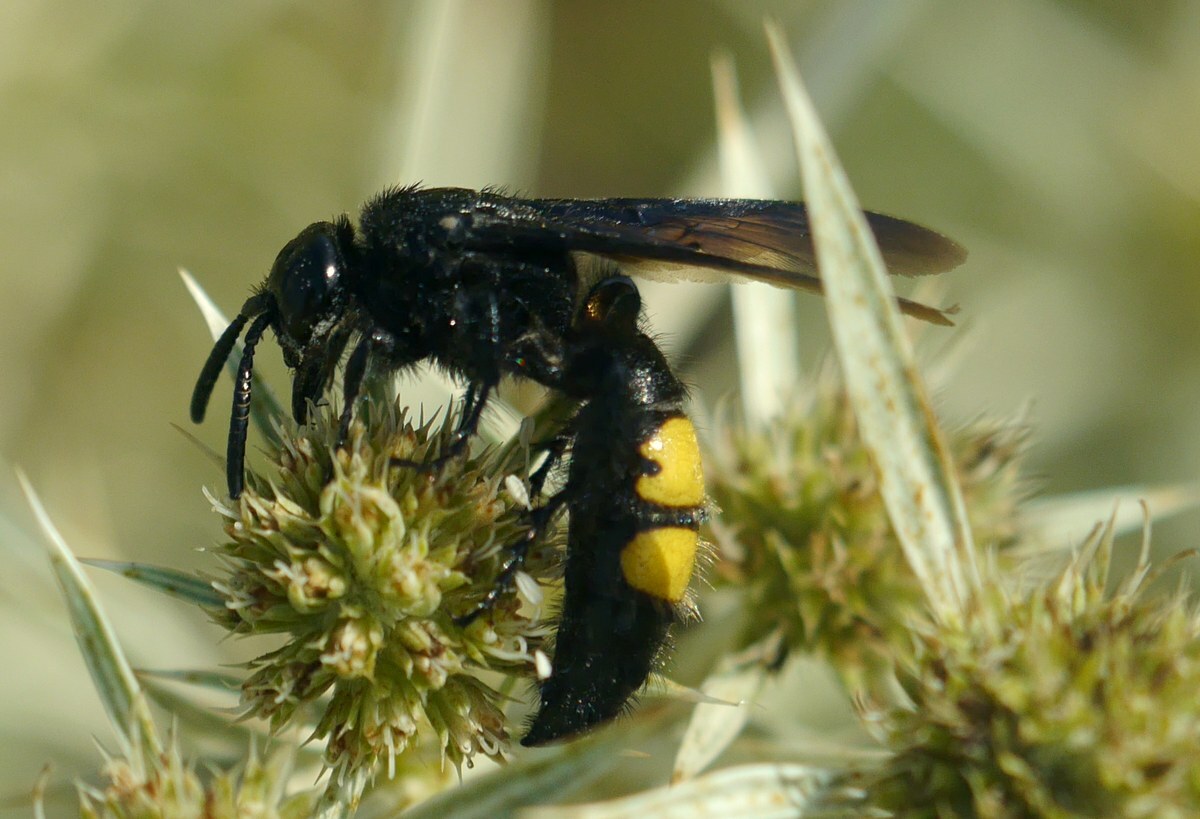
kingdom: Animalia
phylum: Arthropoda
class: Insecta
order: Hymenoptera
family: Scoliidae
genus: Scolia
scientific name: Scolia hirta
